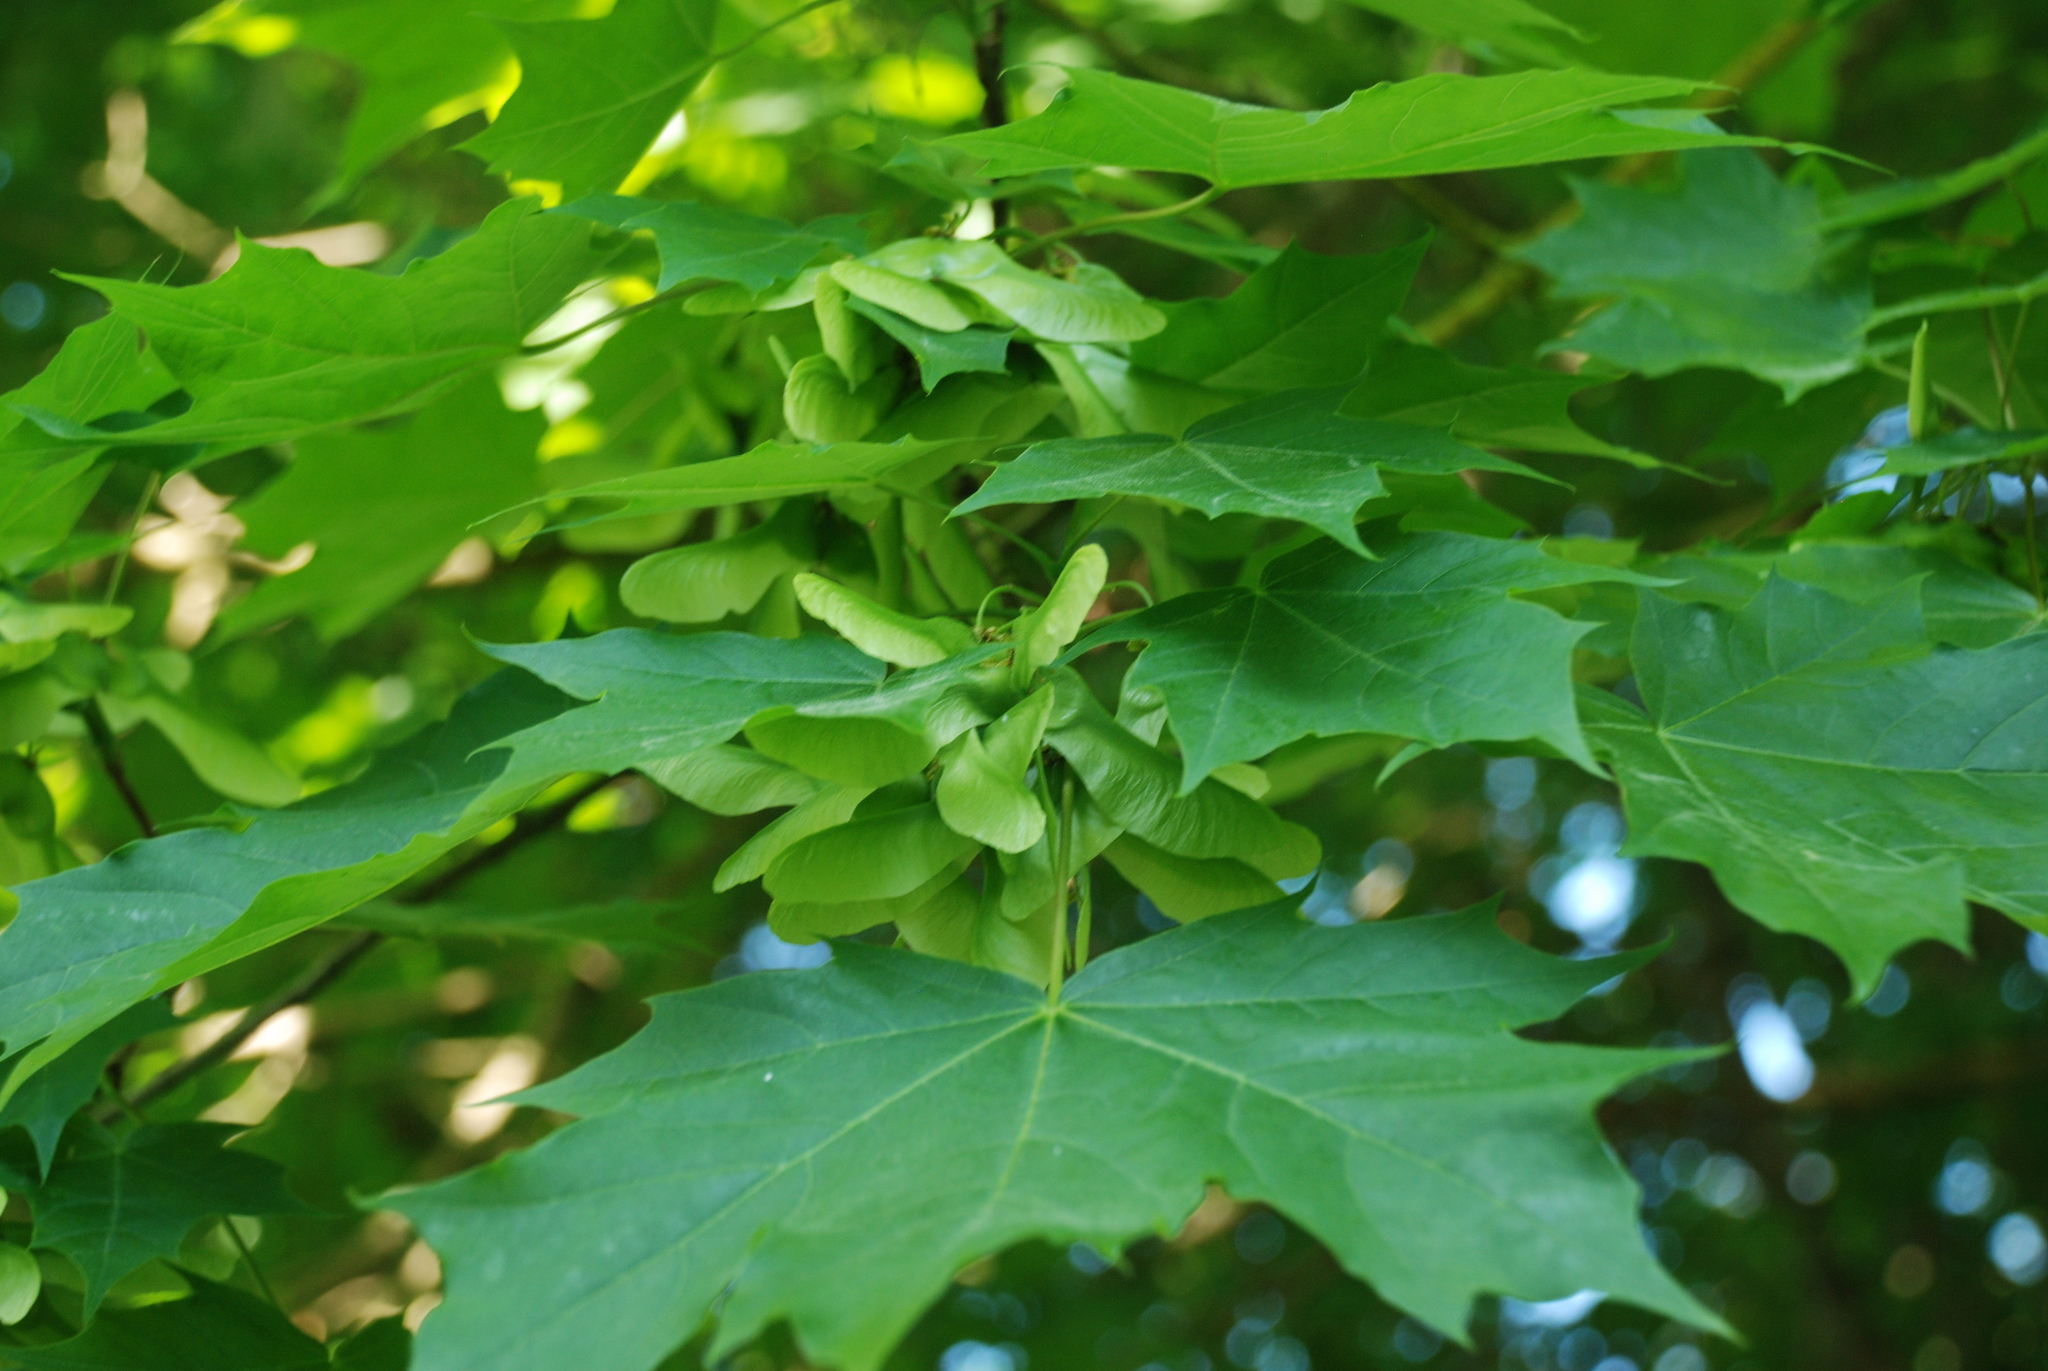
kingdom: Plantae
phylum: Tracheophyta
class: Magnoliopsida
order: Sapindales
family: Sapindaceae
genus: Acer
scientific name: Acer platanoides
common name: Norway maple
